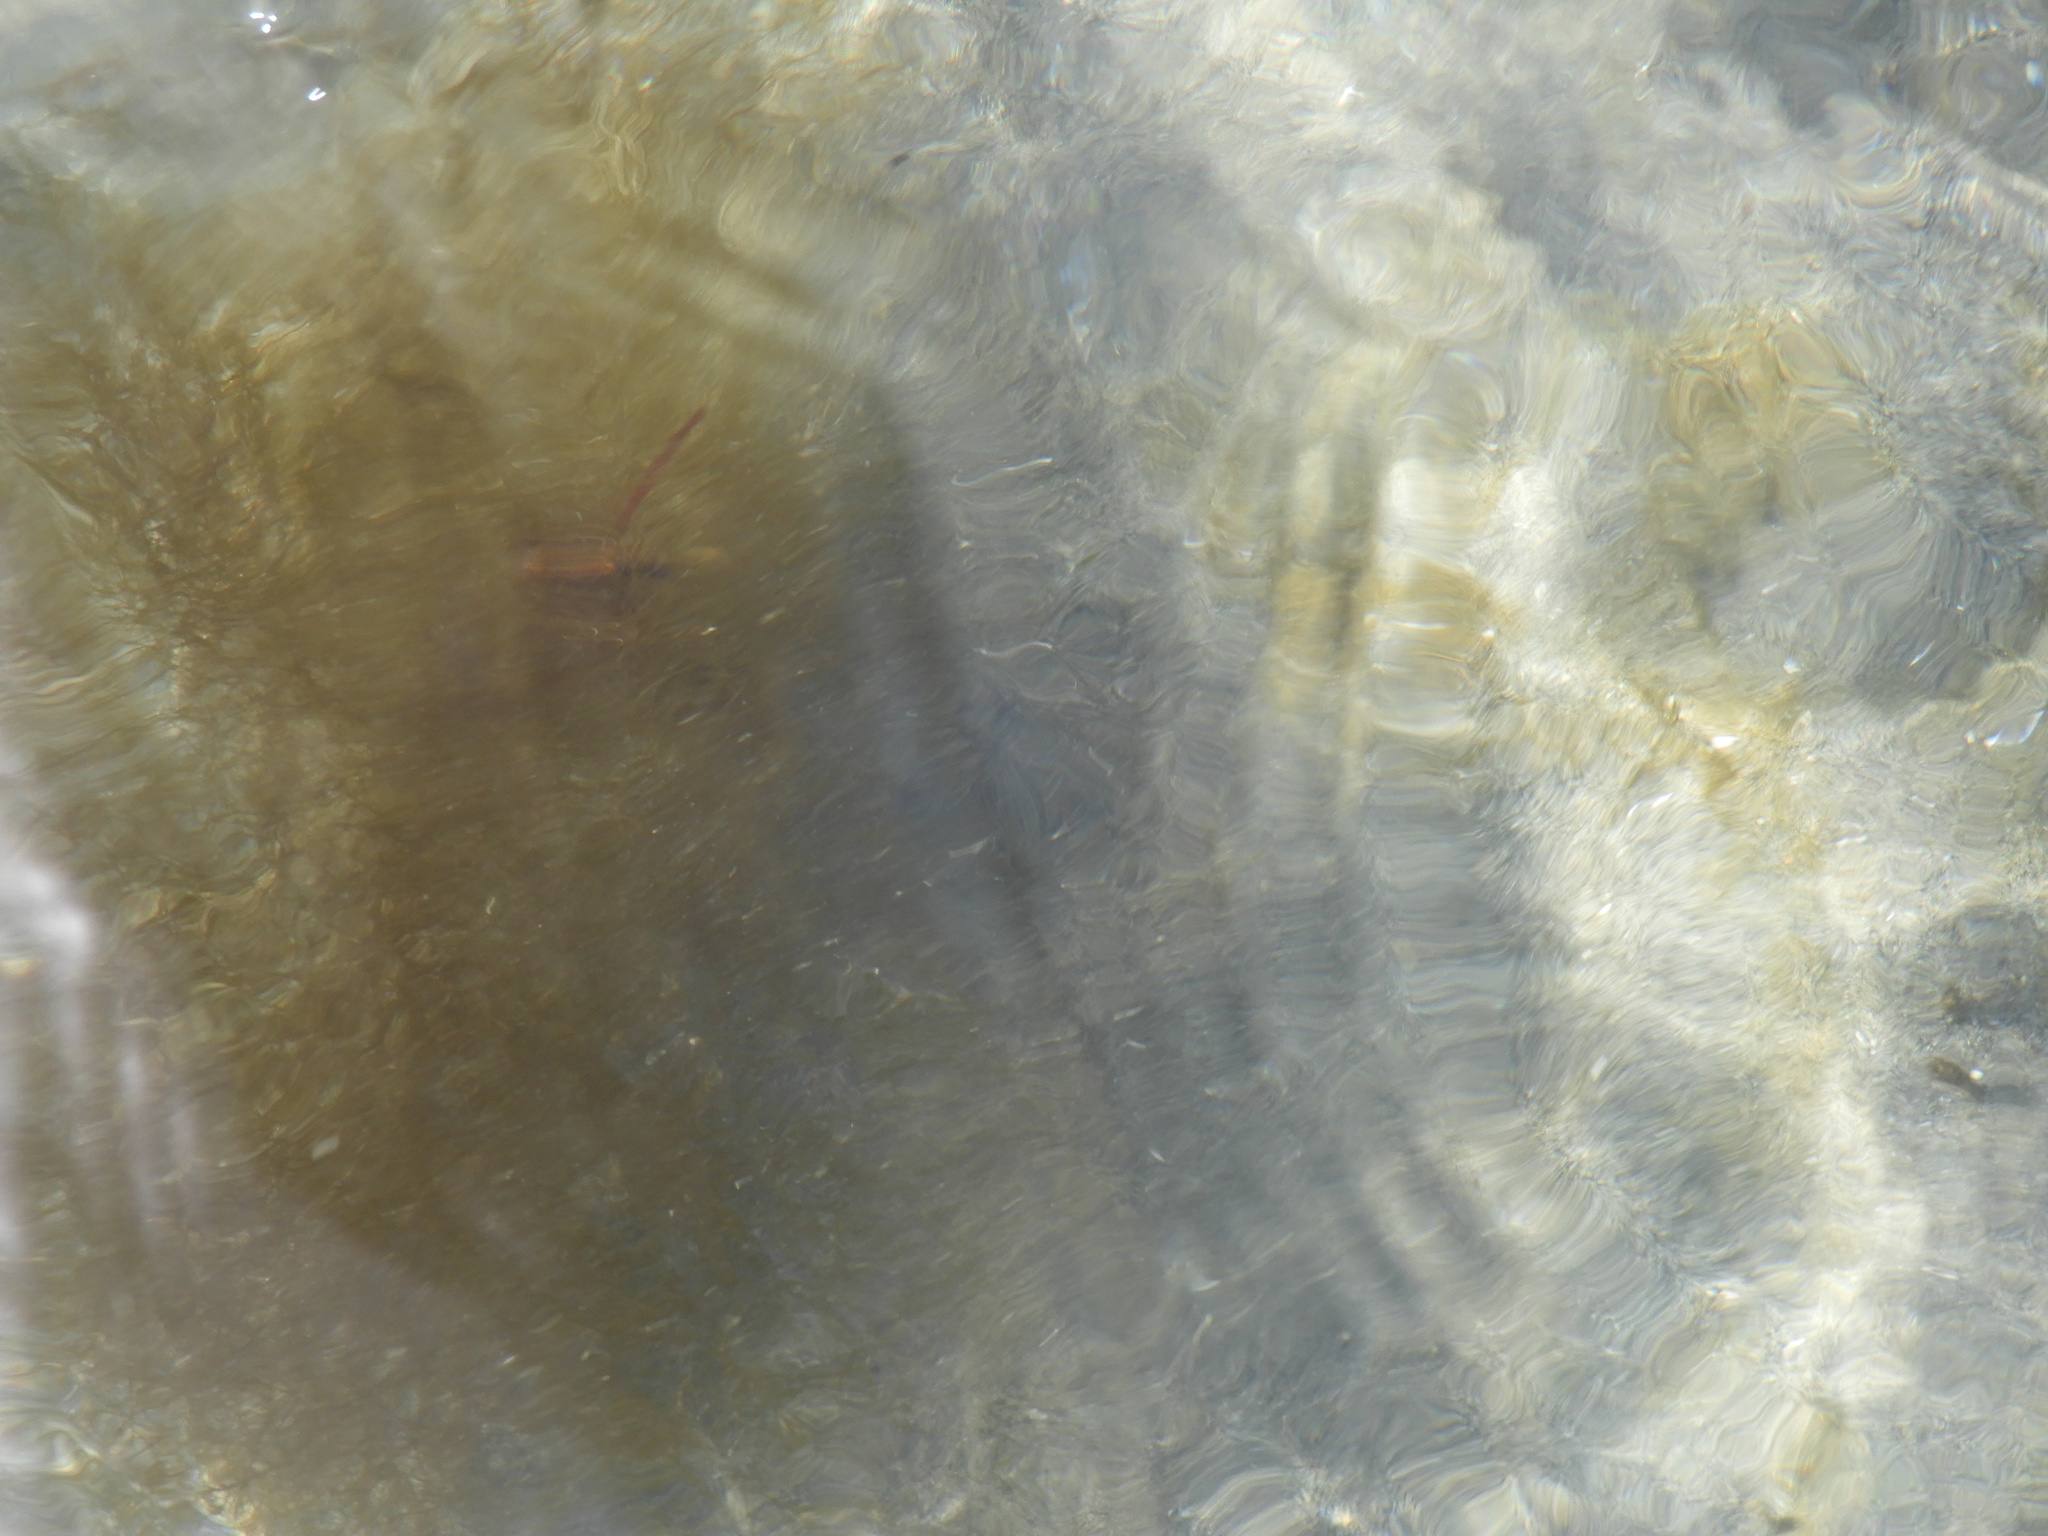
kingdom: Chromista
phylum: Ochrophyta
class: Phaeophyceae
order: Desmarestiales
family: Desmarestiaceae
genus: Desmarestia
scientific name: Desmarestia viridis
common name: Stringy acid kelp
